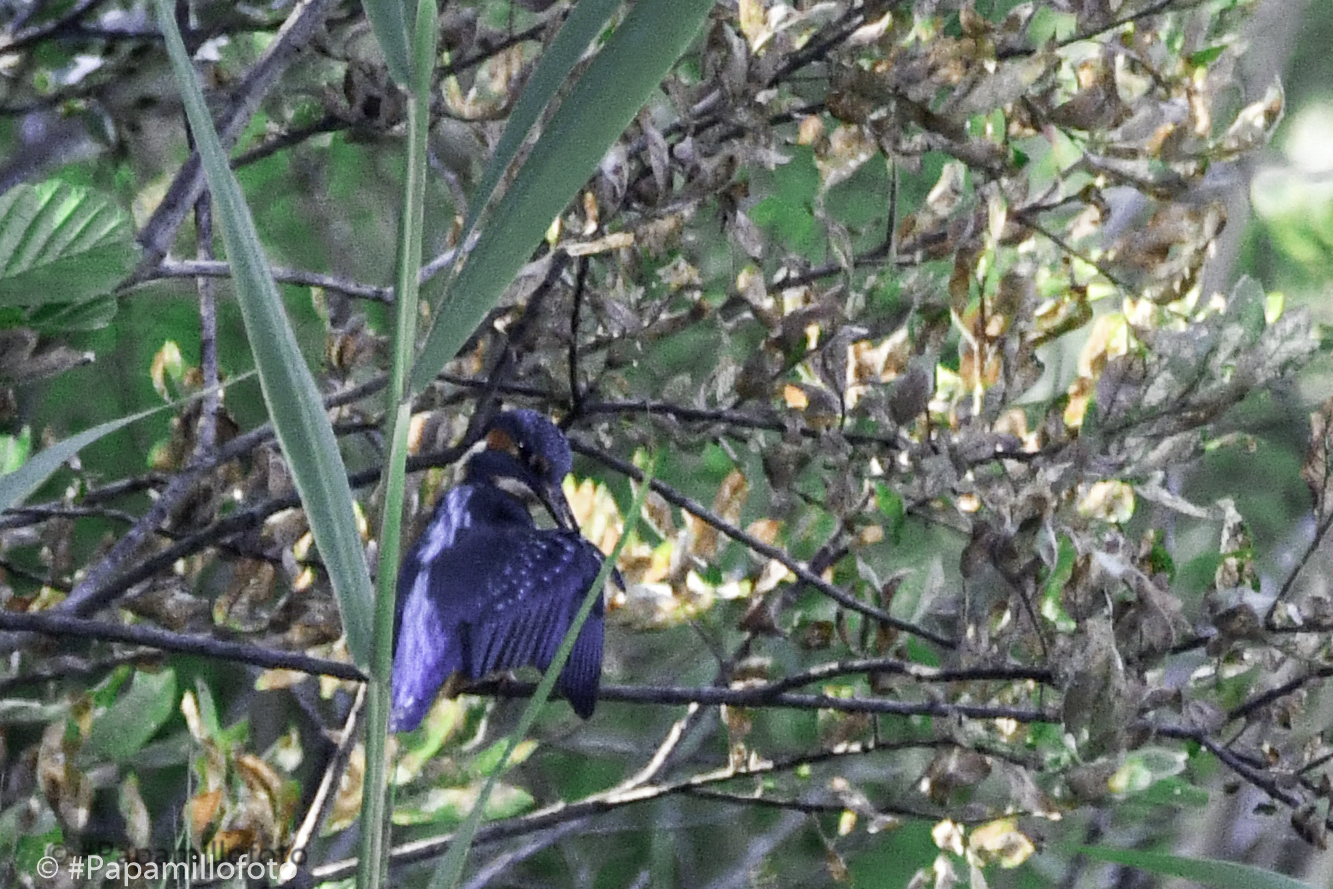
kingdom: Animalia
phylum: Chordata
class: Aves
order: Coraciiformes
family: Alcedinidae
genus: Alcedo
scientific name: Alcedo atthis
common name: Common kingfisher
